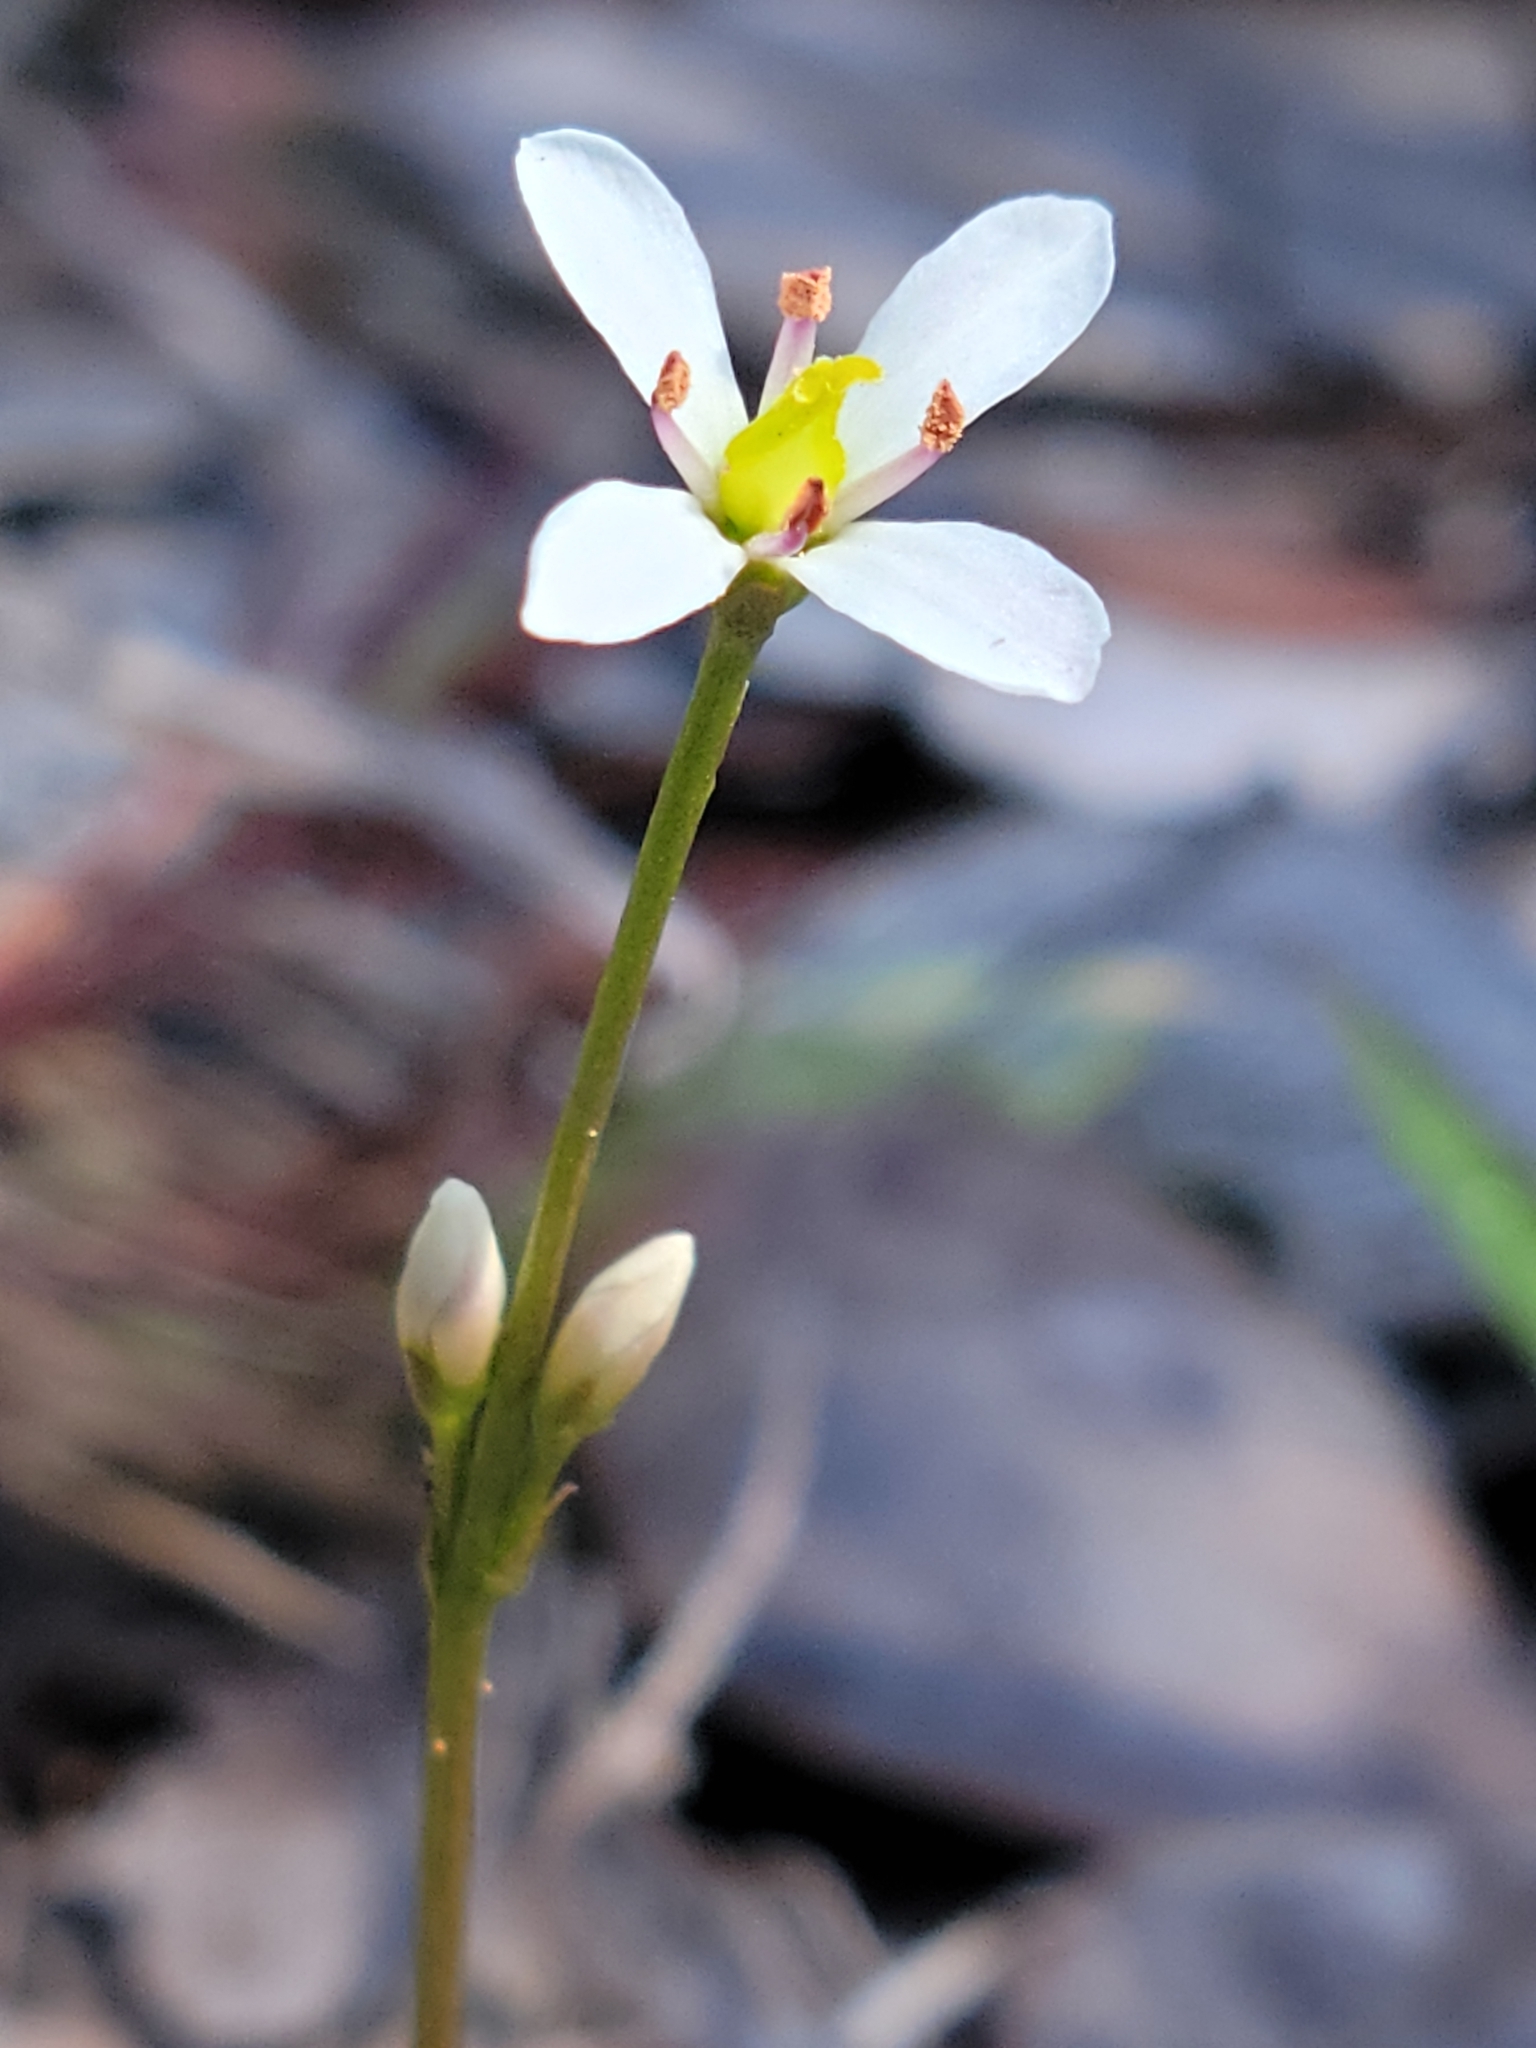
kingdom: Plantae
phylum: Tracheophyta
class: Magnoliopsida
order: Gentianales
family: Gentianaceae
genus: Bartonia
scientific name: Bartonia verna
